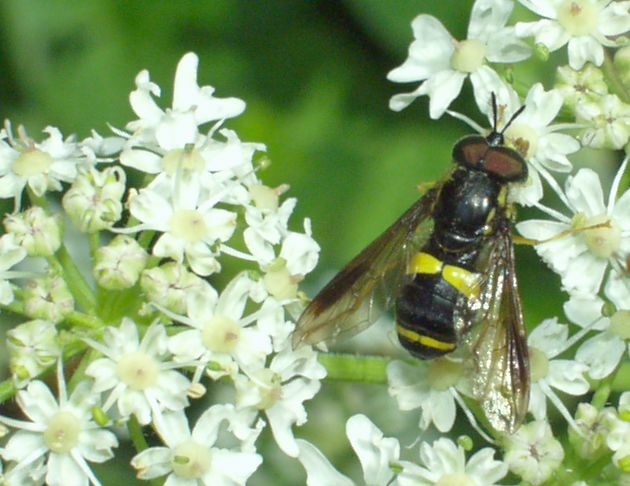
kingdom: Animalia
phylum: Arthropoda
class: Insecta
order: Diptera
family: Syrphidae
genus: Chrysotoxum
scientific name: Chrysotoxum bicincta
